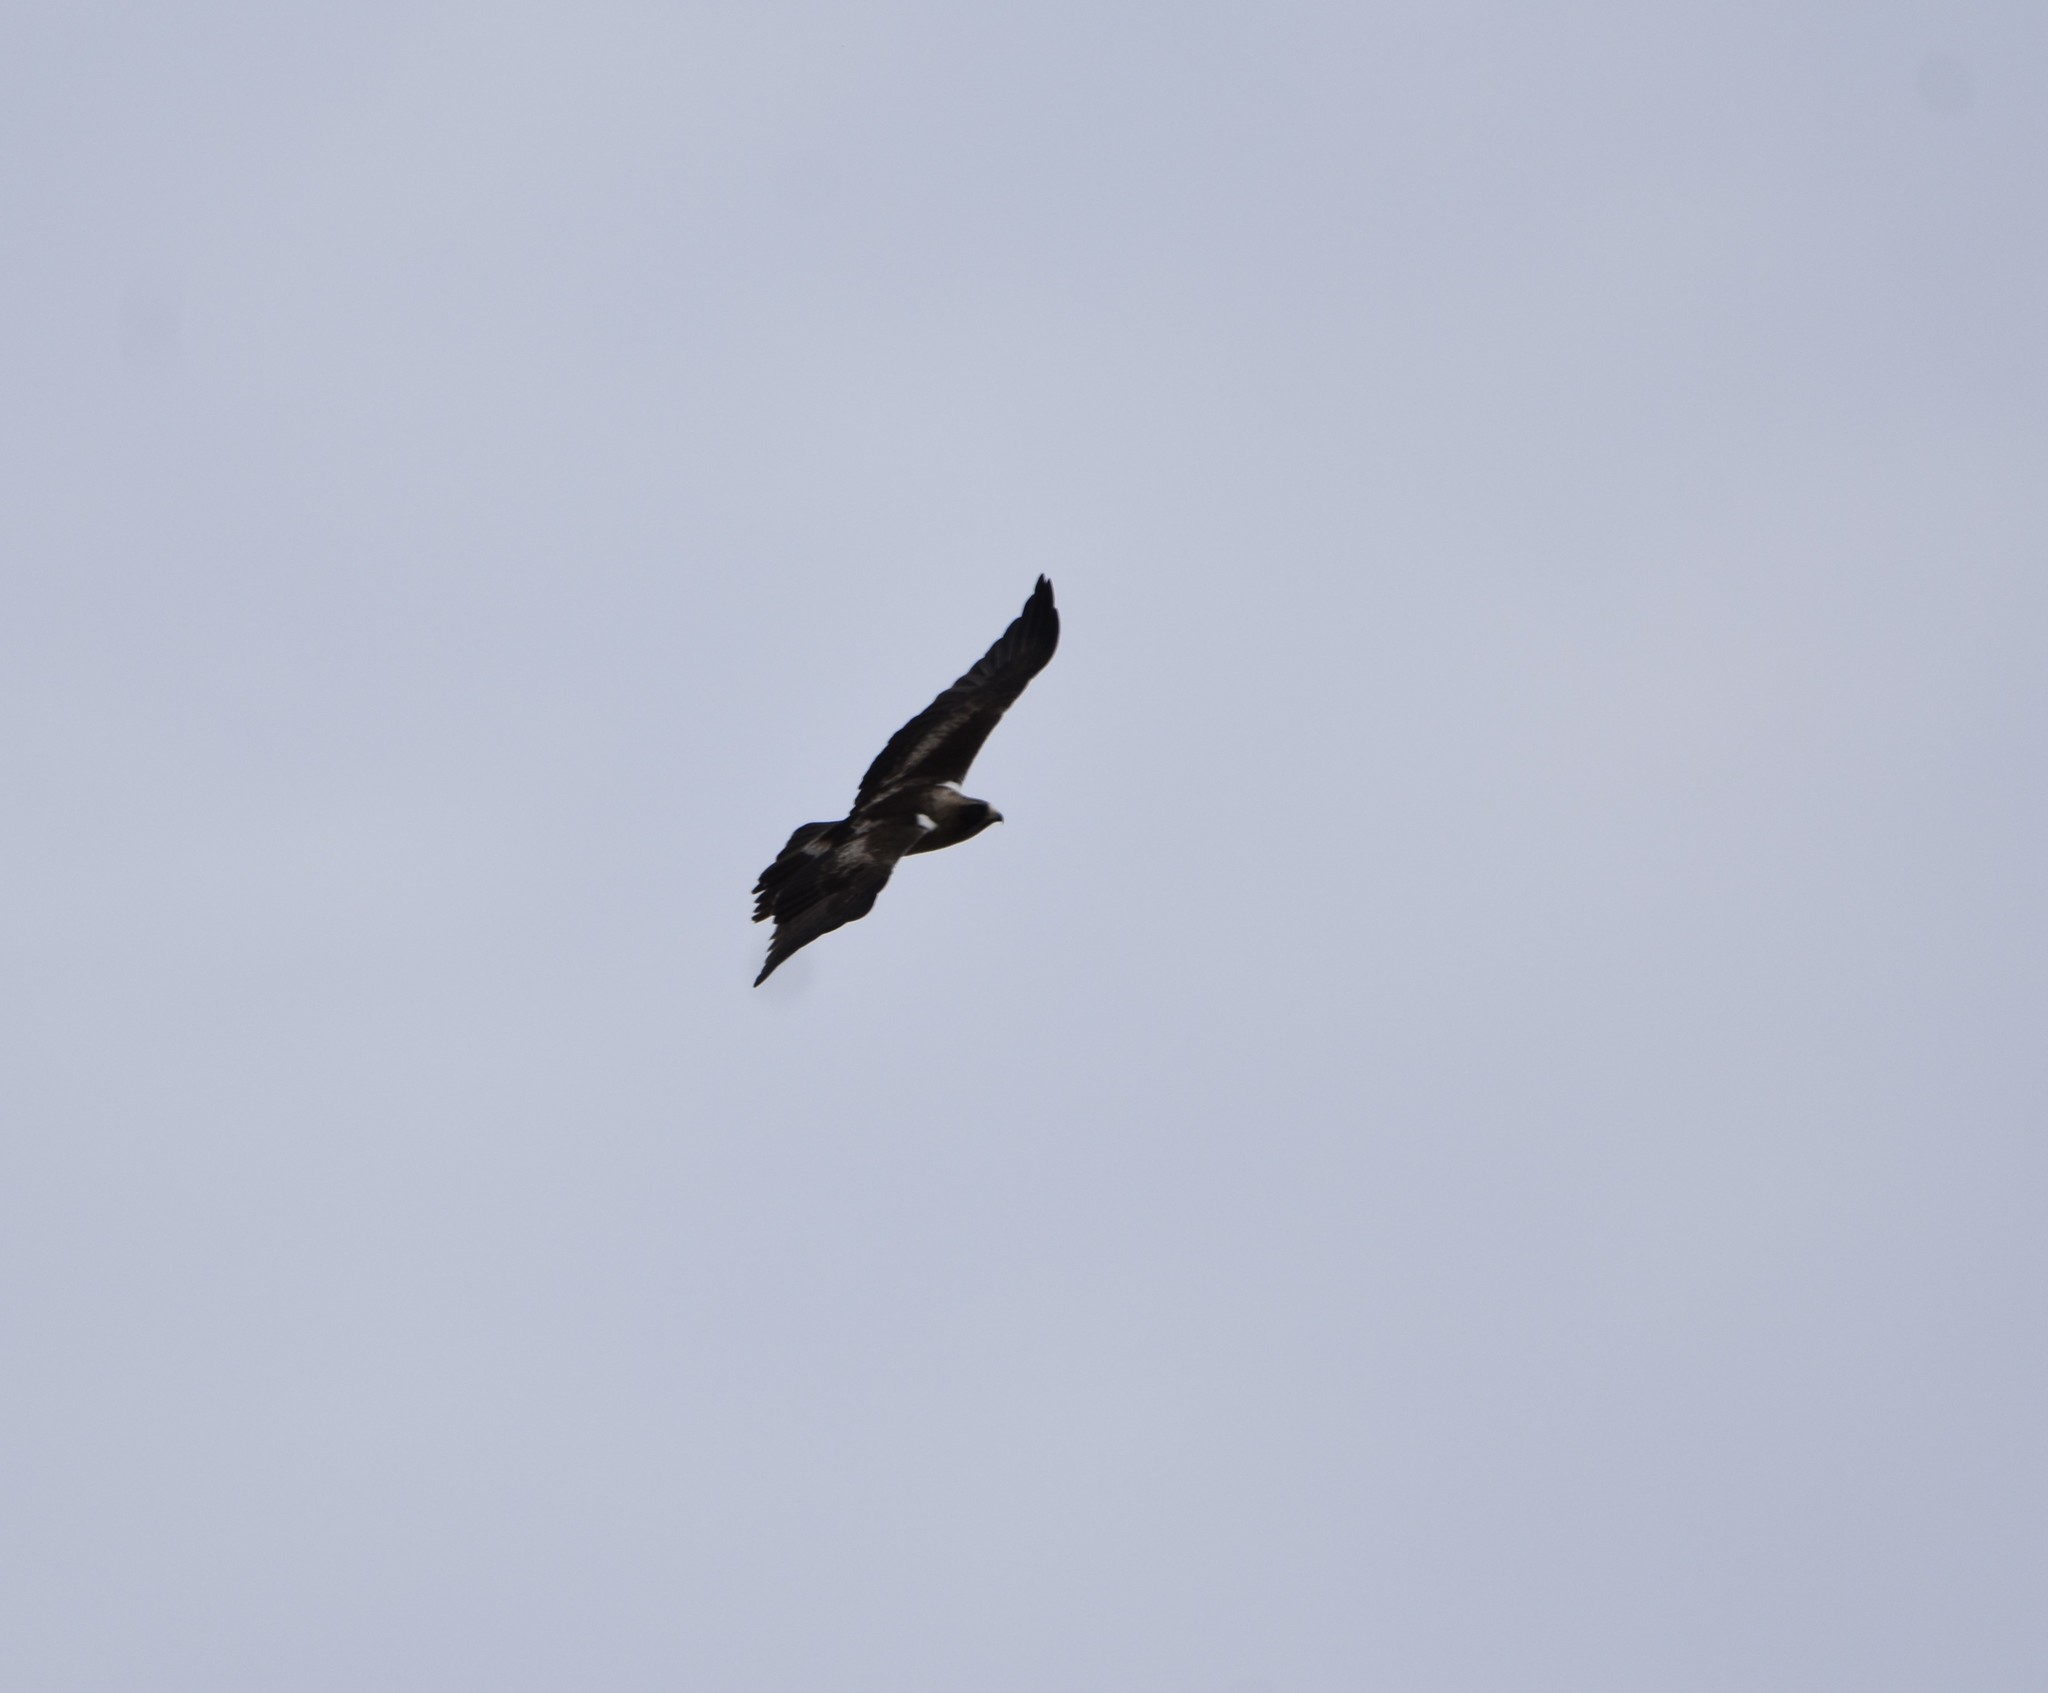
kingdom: Animalia
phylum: Chordata
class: Aves
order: Accipitriformes
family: Accipitridae
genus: Hieraaetus
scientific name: Hieraaetus pennatus
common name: Booted eagle
